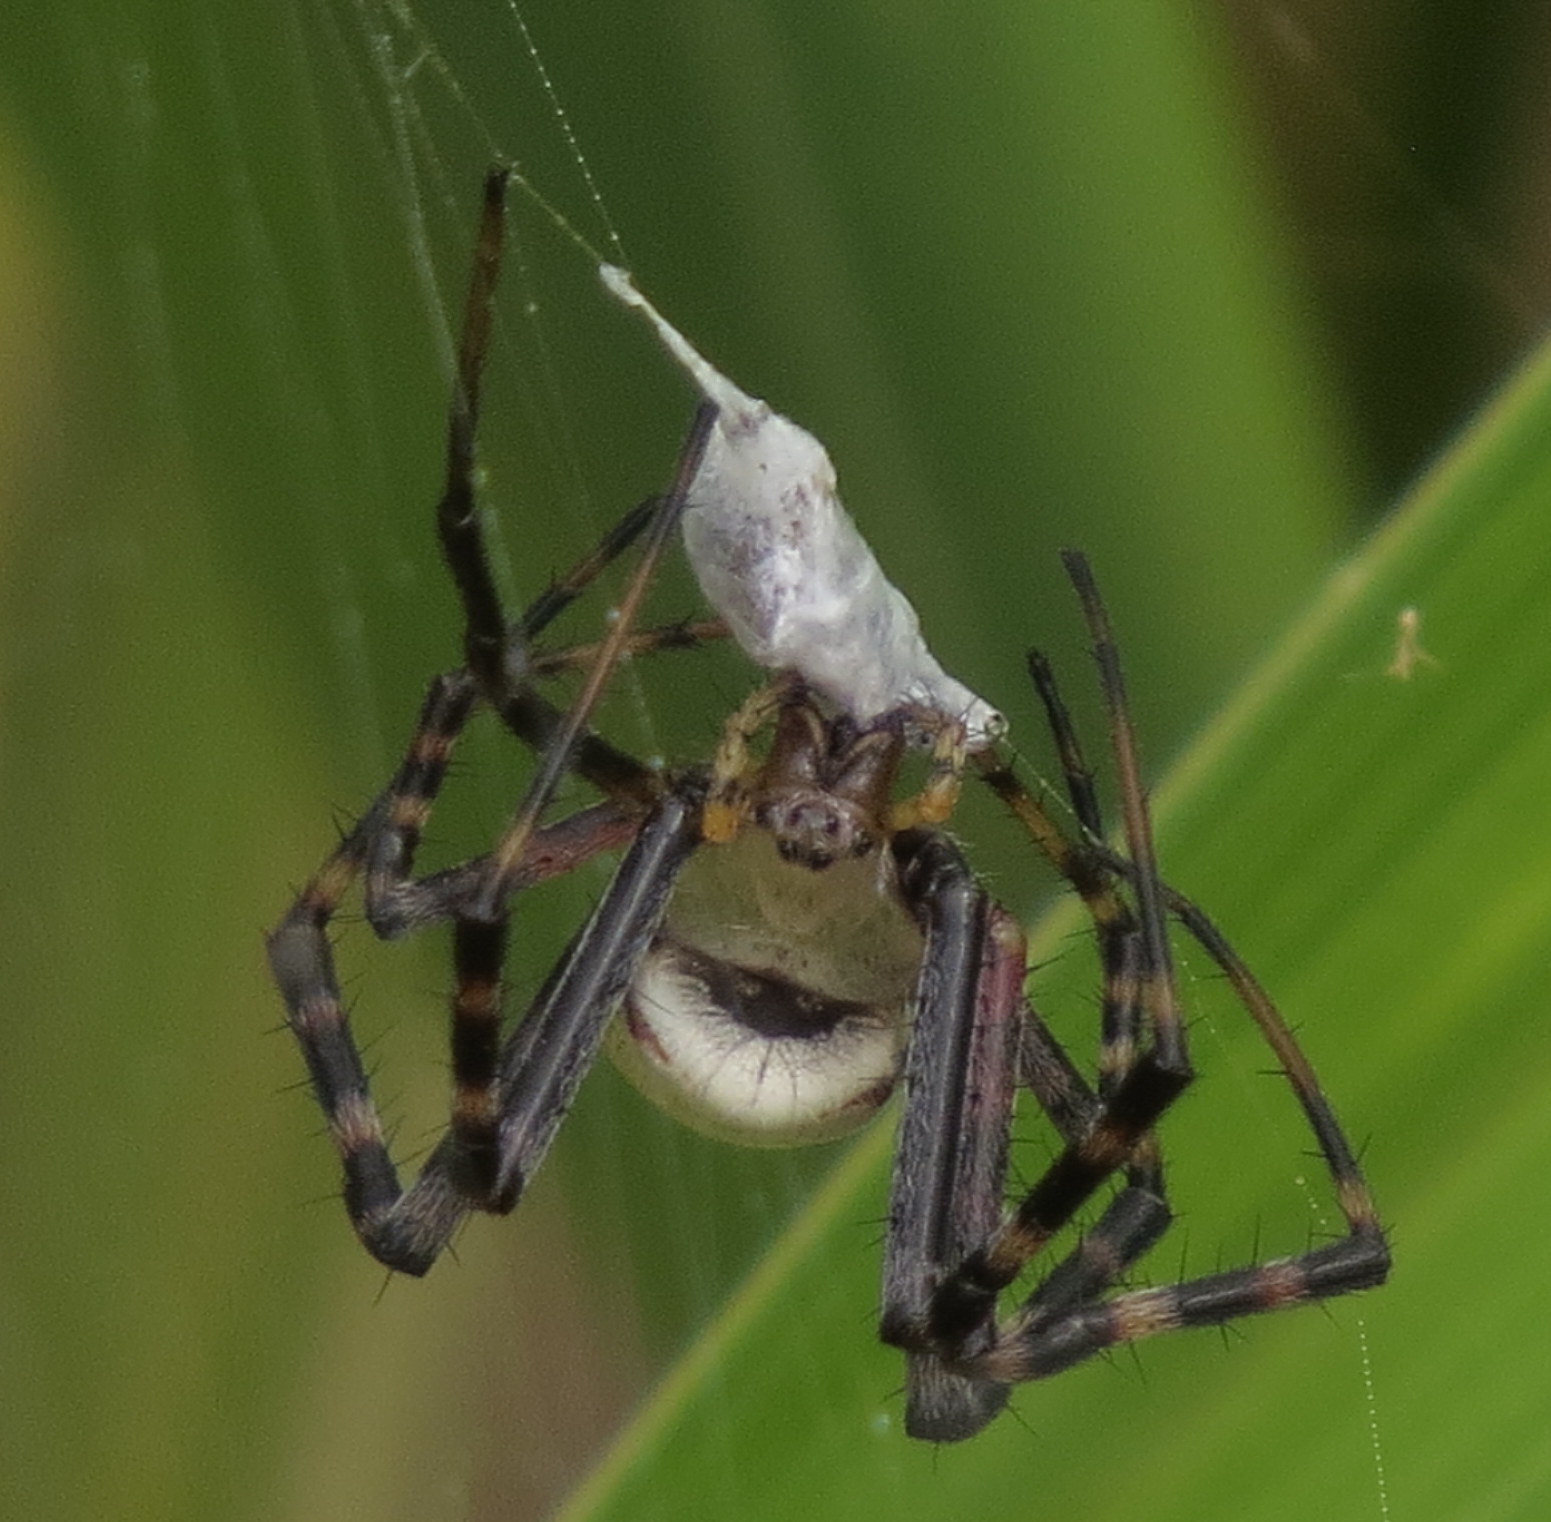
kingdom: Animalia
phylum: Arthropoda
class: Arachnida
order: Araneae
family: Araneidae
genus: Argiope
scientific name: Argiope trifasciata
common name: Banded garden spider
